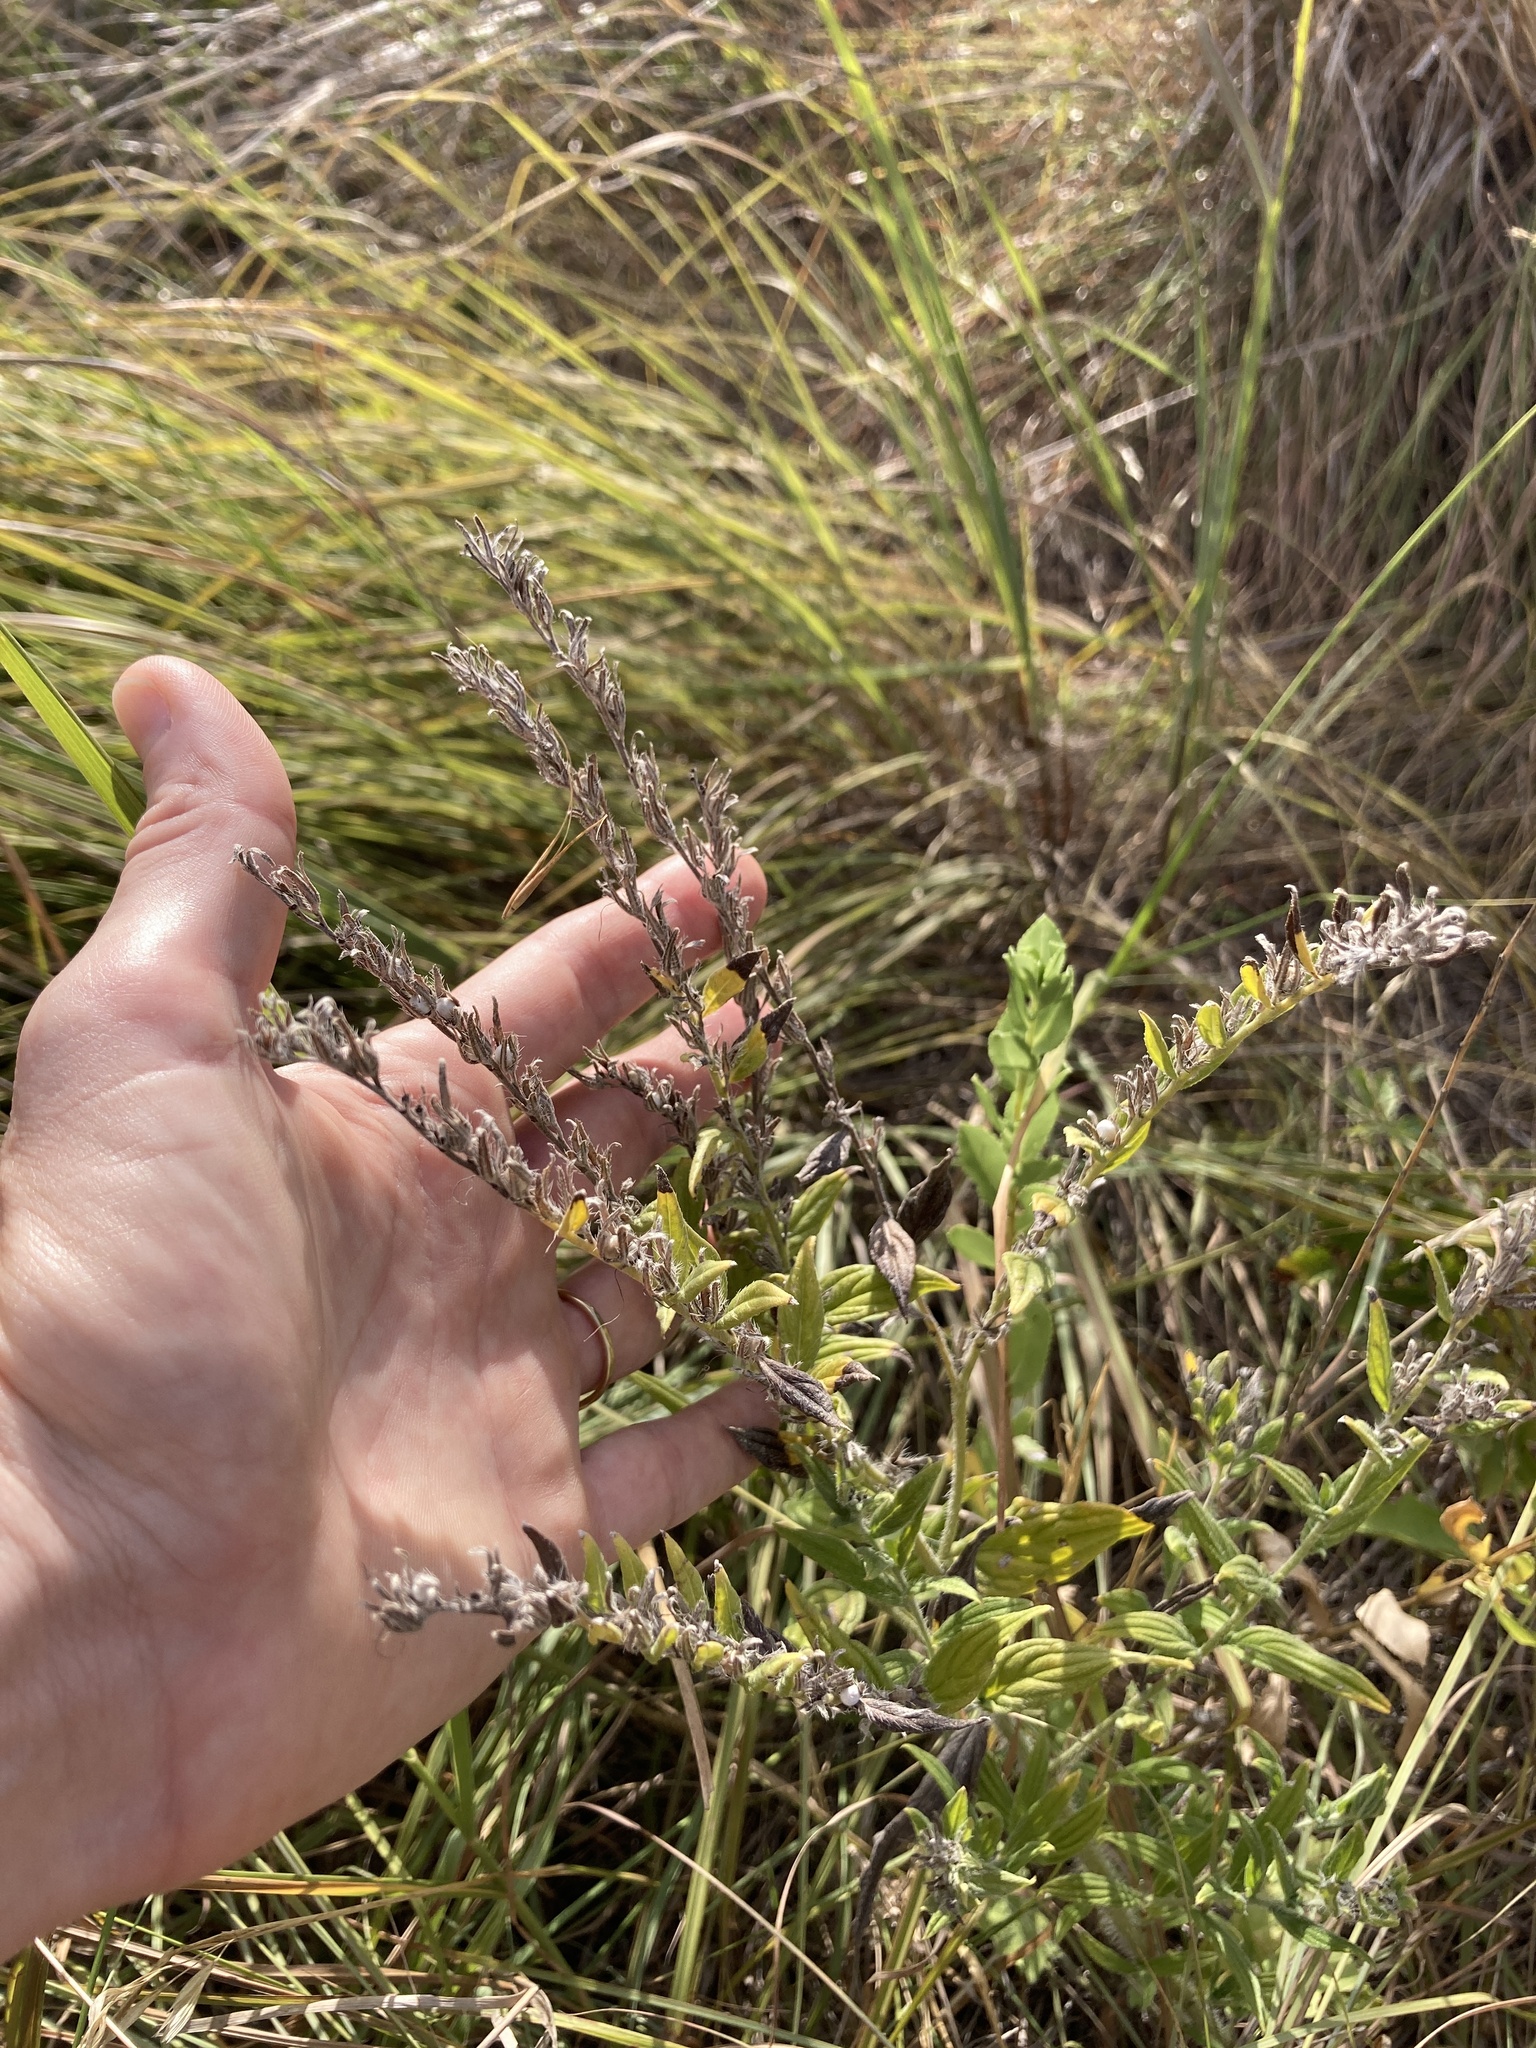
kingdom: Plantae
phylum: Tracheophyta
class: Magnoliopsida
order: Boraginales
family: Boraginaceae
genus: Lithospermum
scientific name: Lithospermum caroliniense
